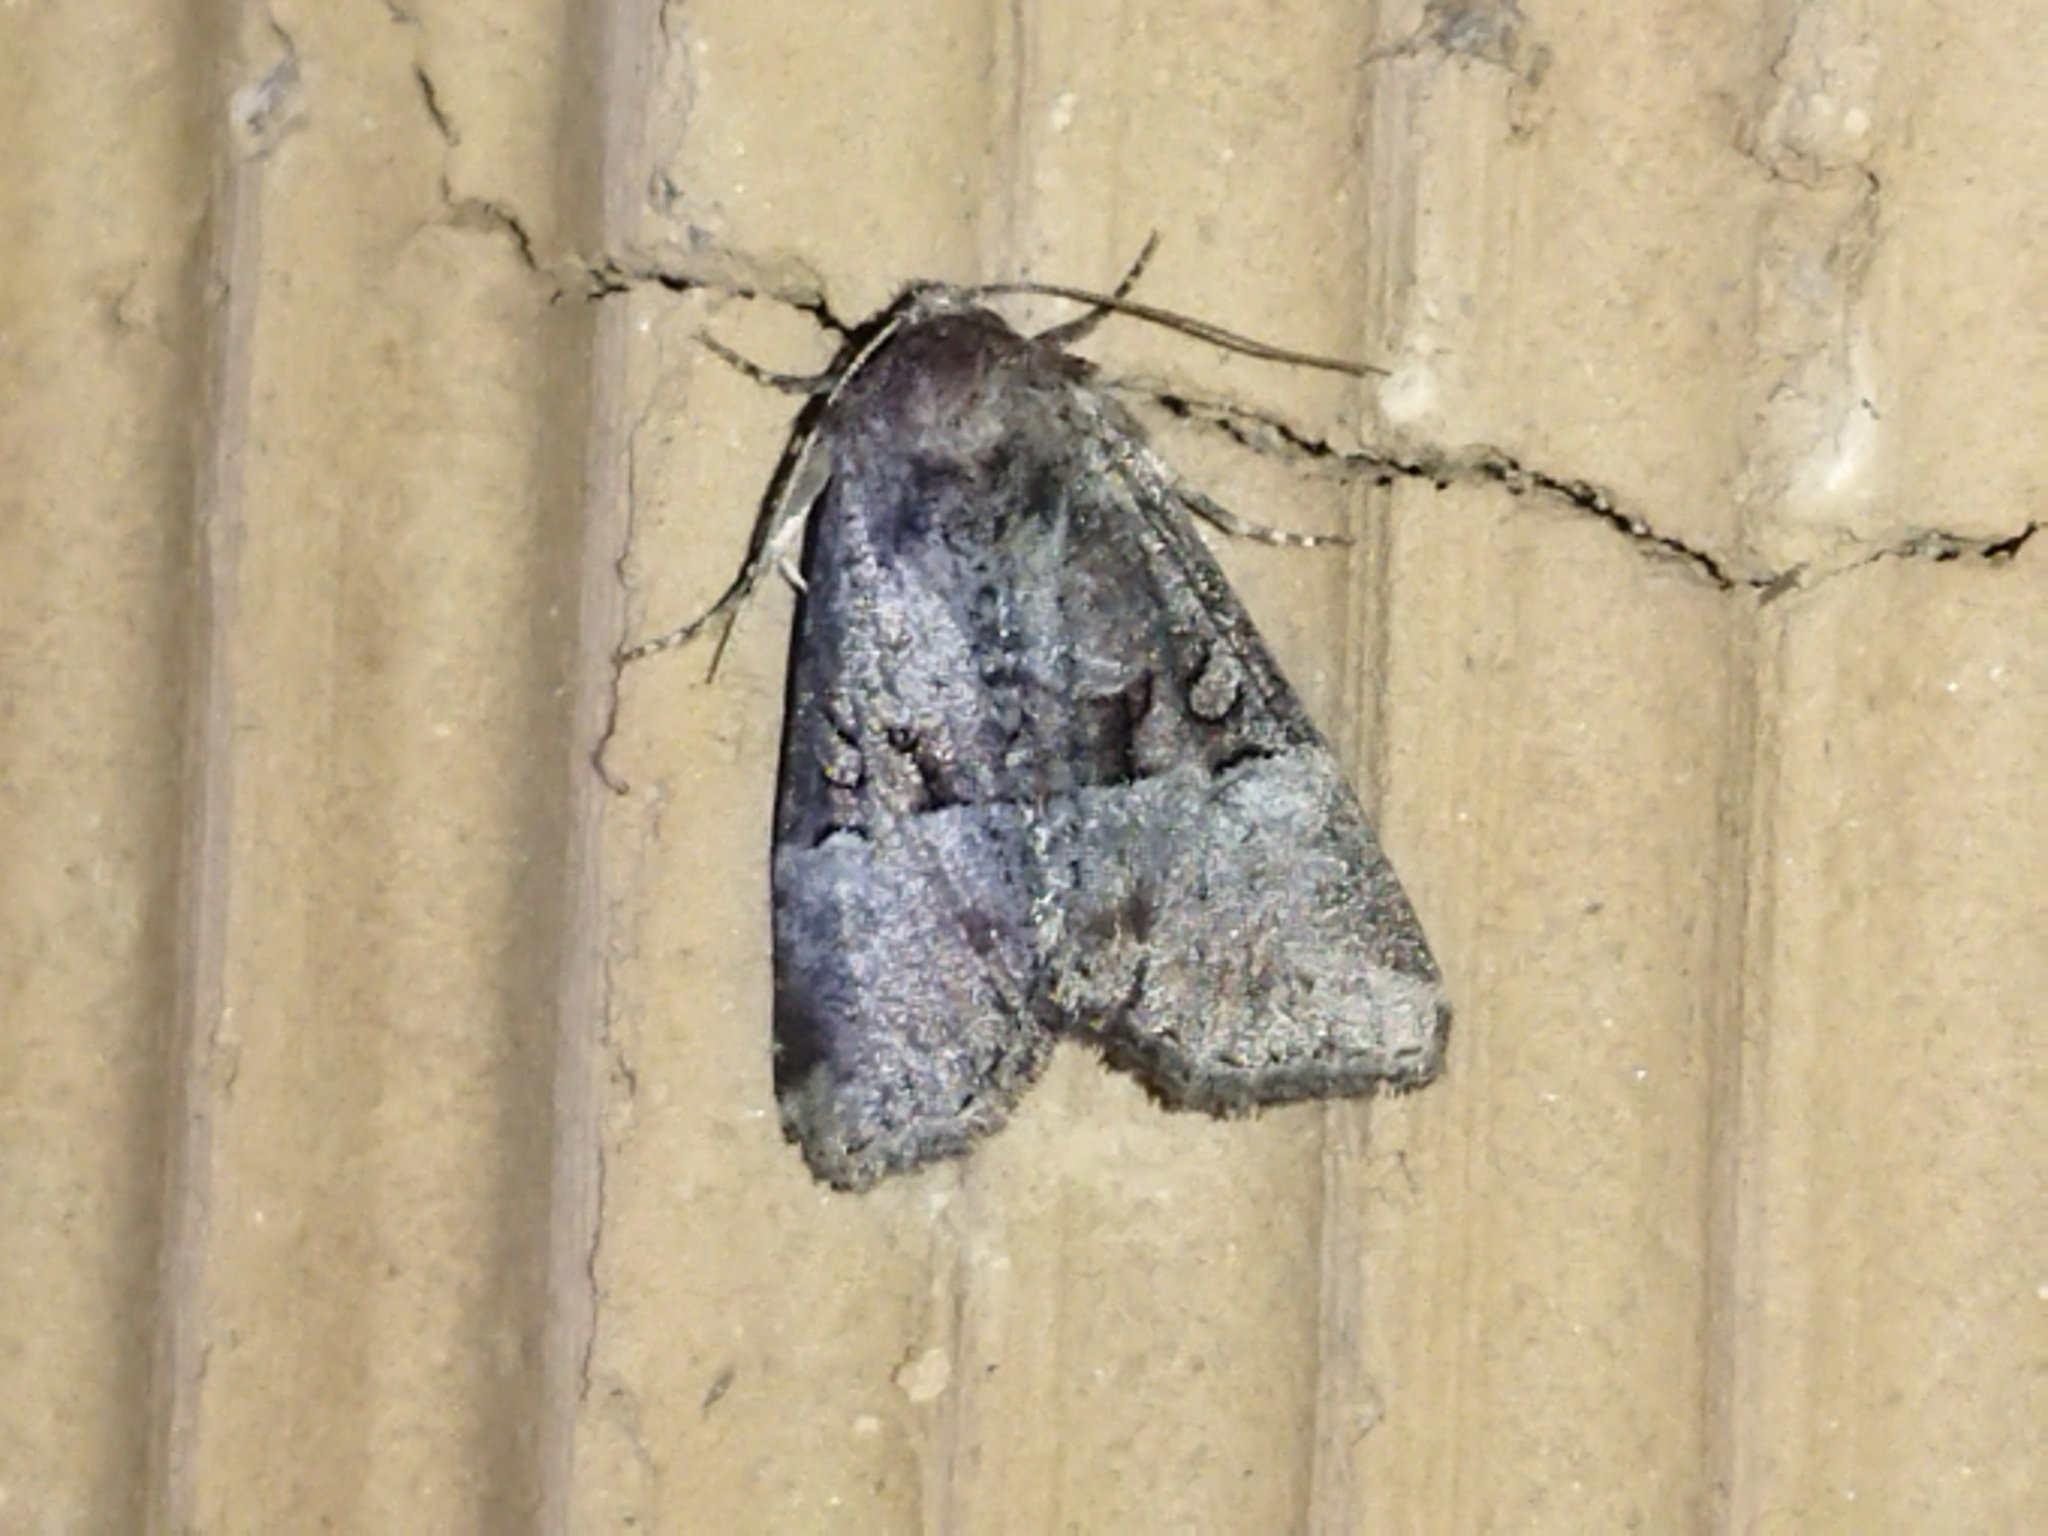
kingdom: Animalia
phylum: Arthropoda
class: Insecta
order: Lepidoptera
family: Noctuidae
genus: Litoligia
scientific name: Litoligia literosa
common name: Rosy minor
